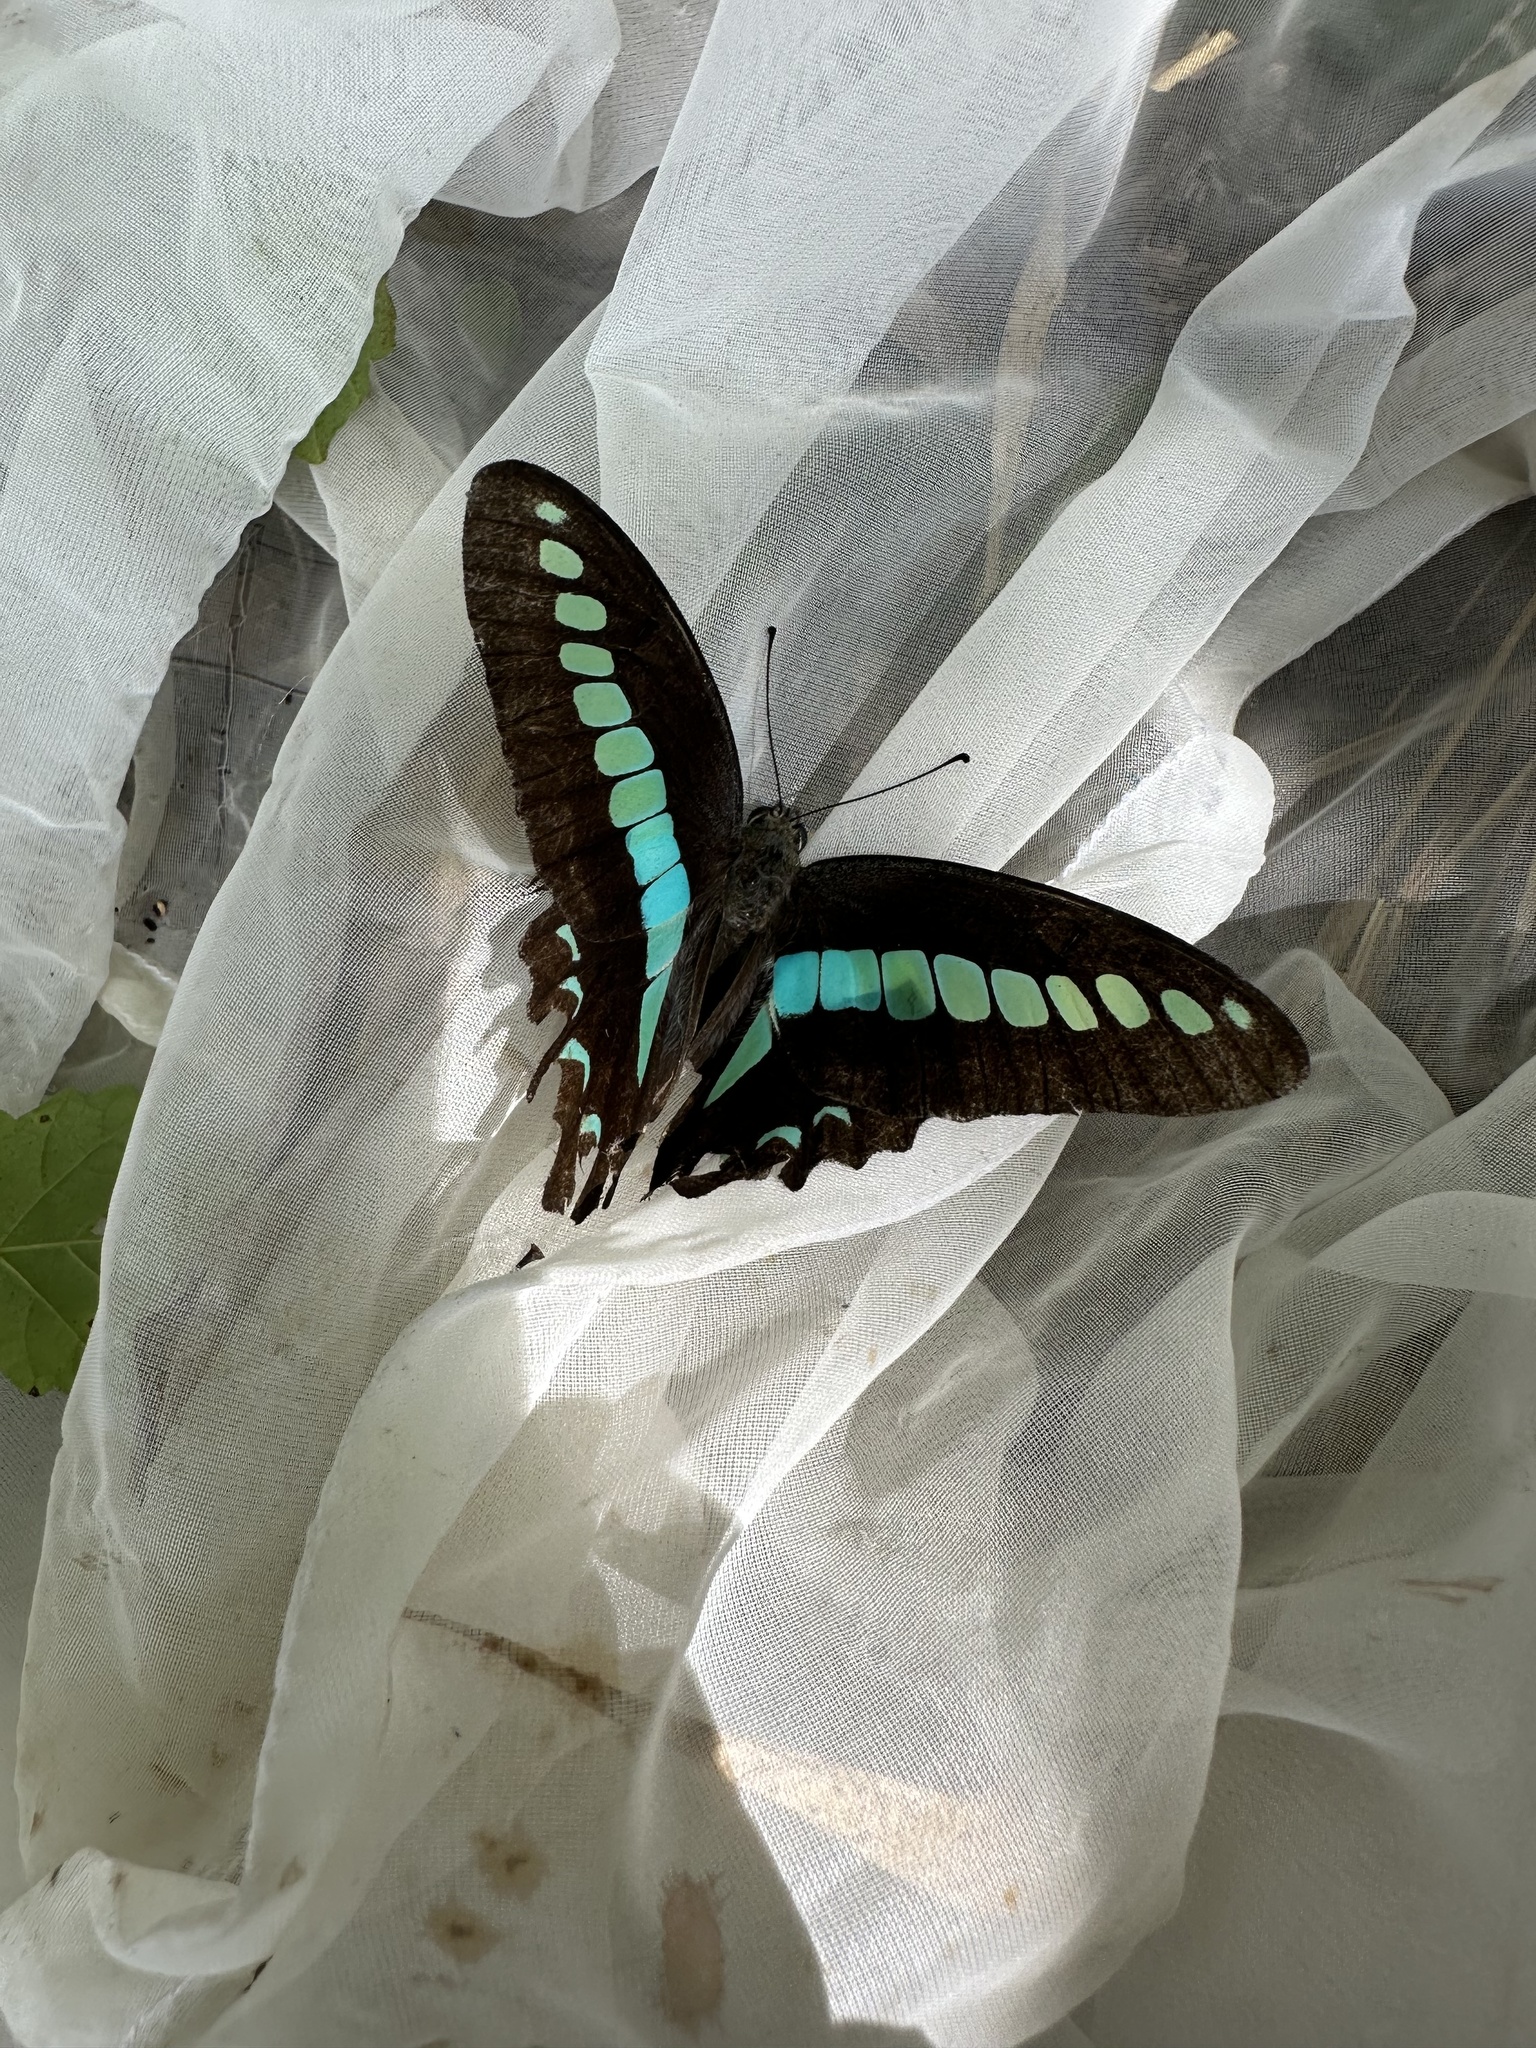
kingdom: Fungi
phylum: Ascomycota
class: Sordariomycetes
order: Microascales
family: Microascaceae
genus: Graphium
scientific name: Graphium sarpedon
